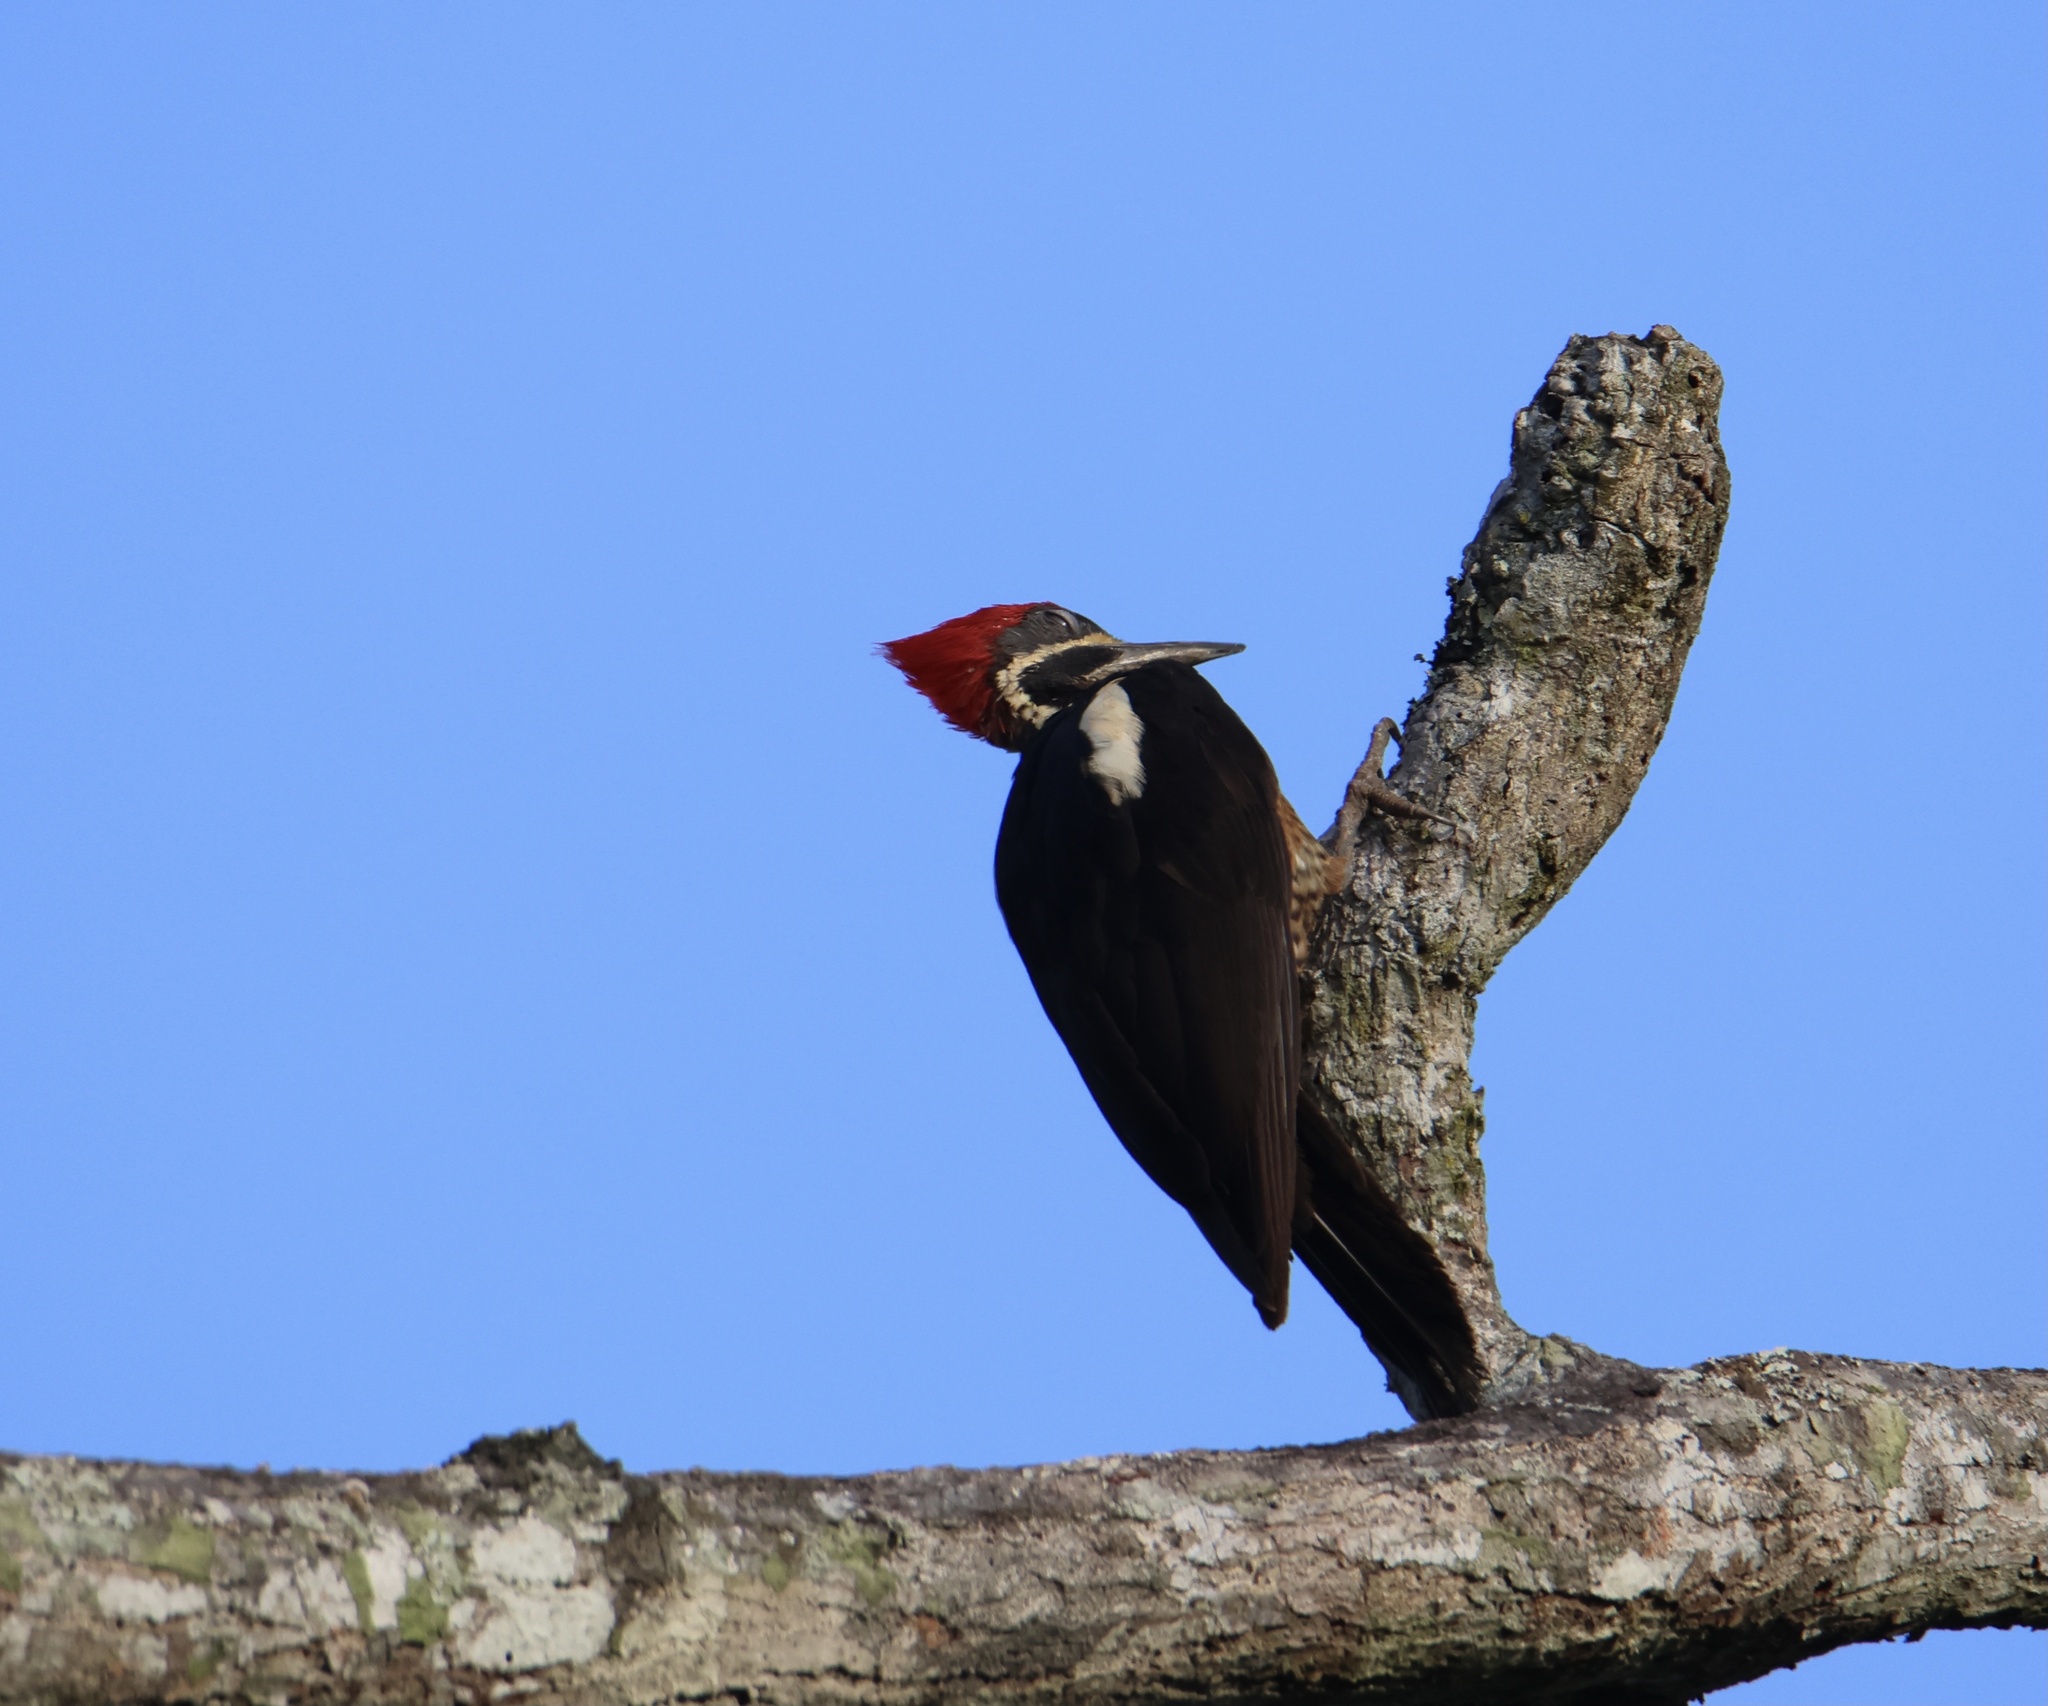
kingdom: Animalia
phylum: Chordata
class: Aves
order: Piciformes
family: Picidae
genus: Dryocopus
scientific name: Dryocopus lineatus
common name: Lineated woodpecker
